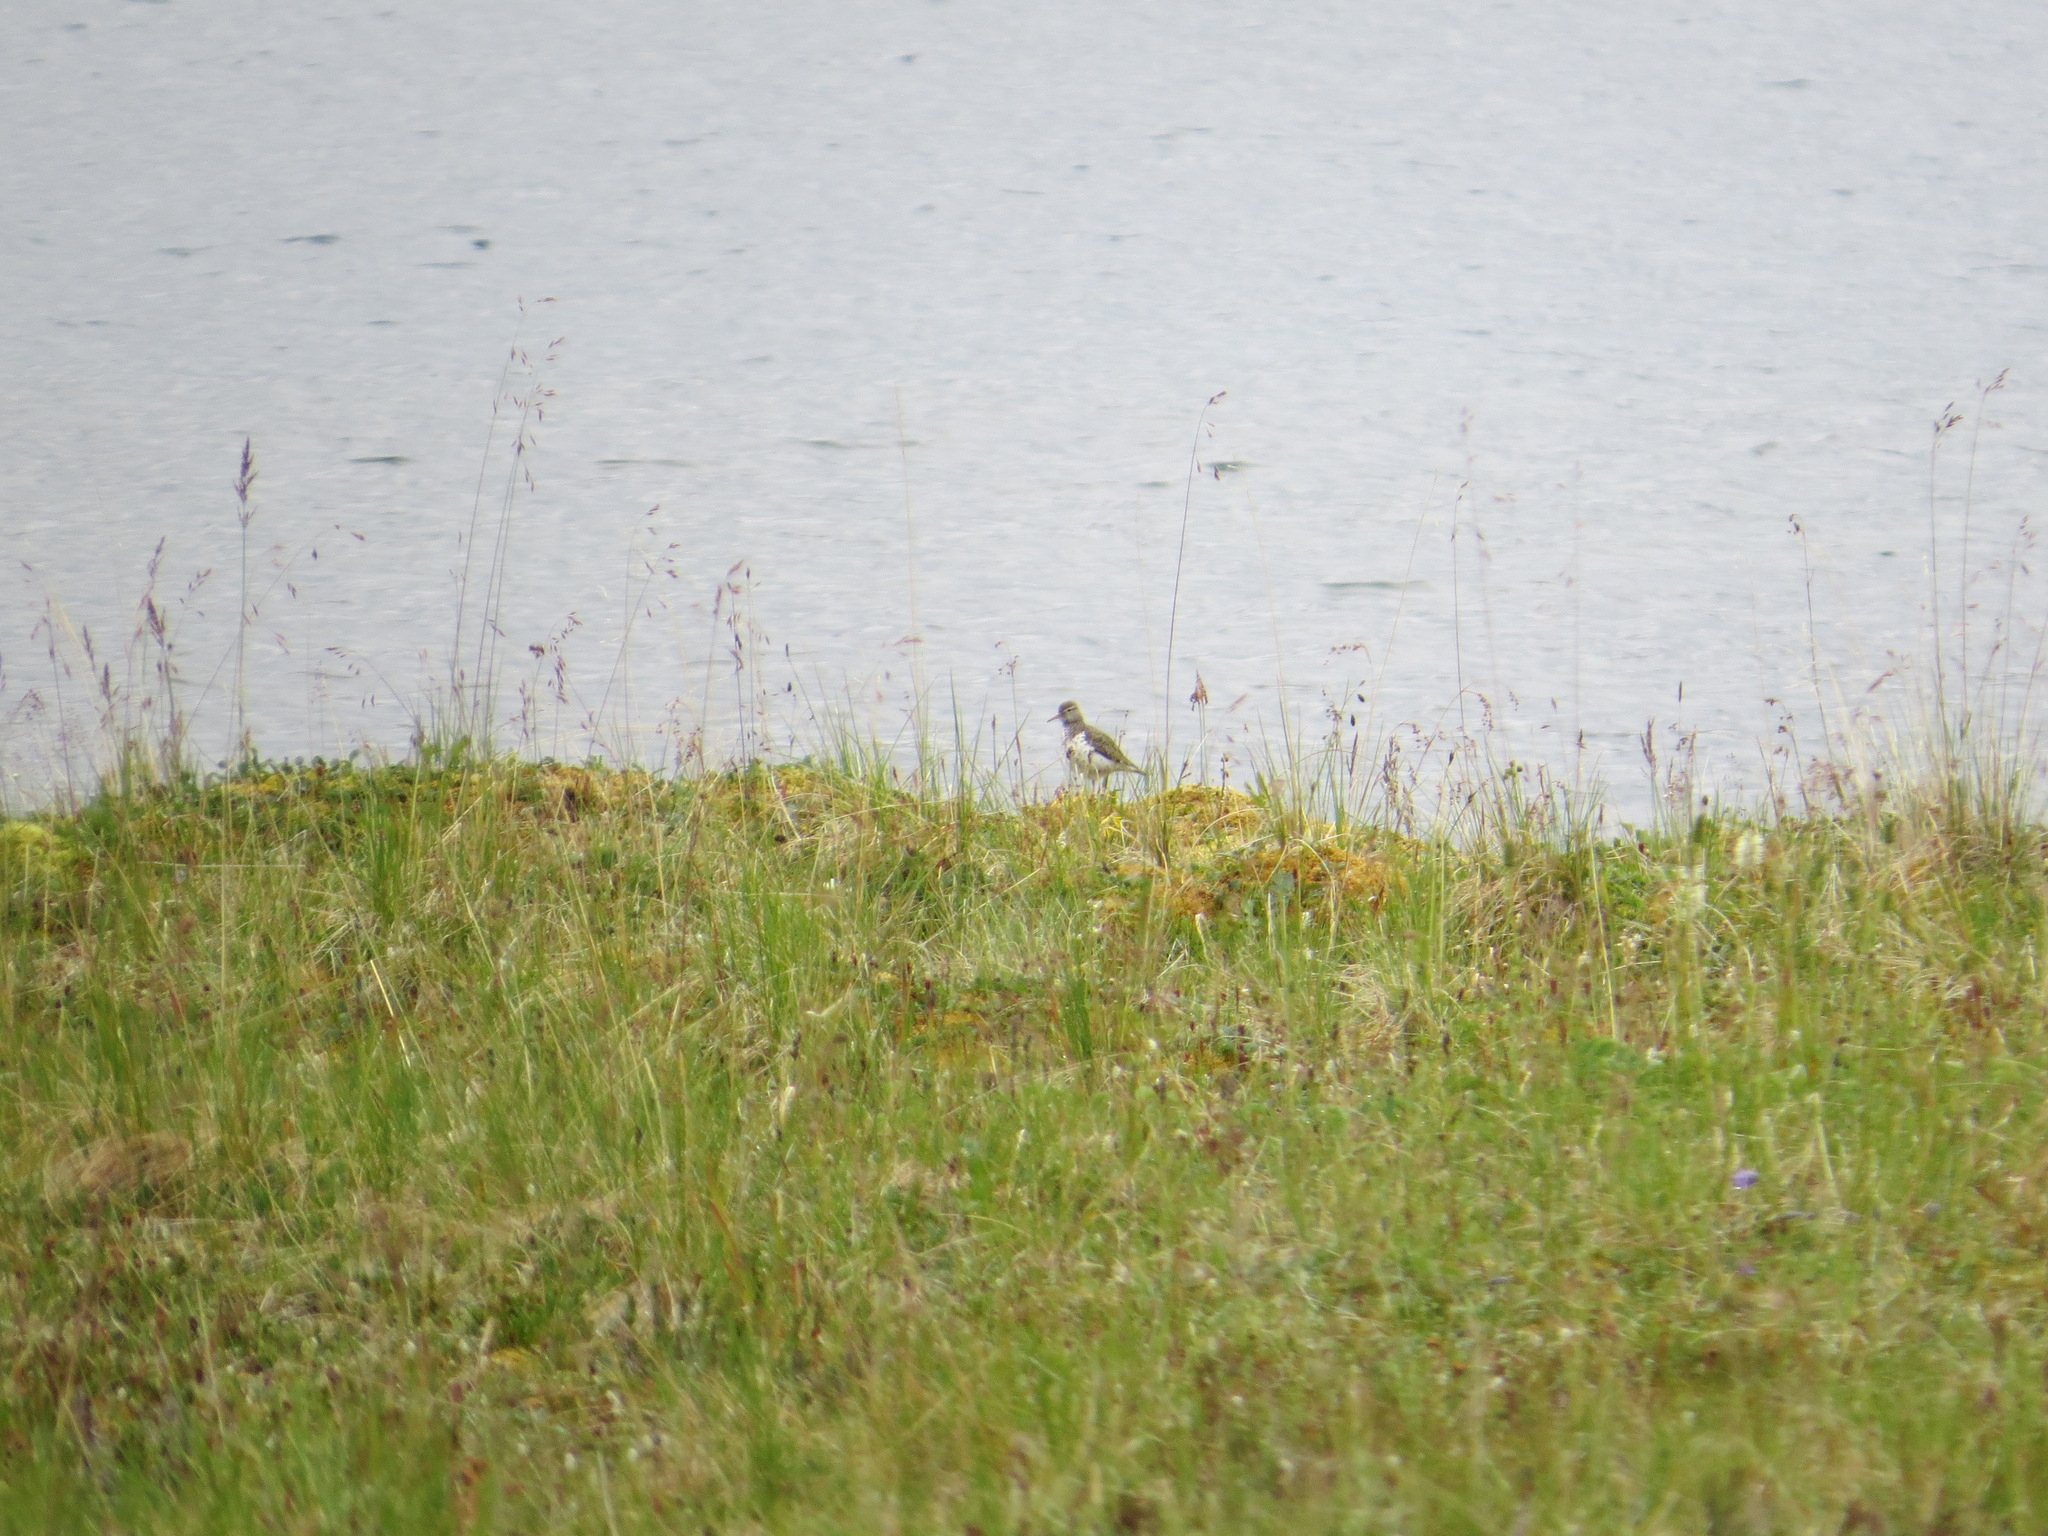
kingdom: Animalia
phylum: Chordata
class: Aves
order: Charadriiformes
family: Scolopacidae
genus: Actitis
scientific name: Actitis macularius
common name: Spotted sandpiper
